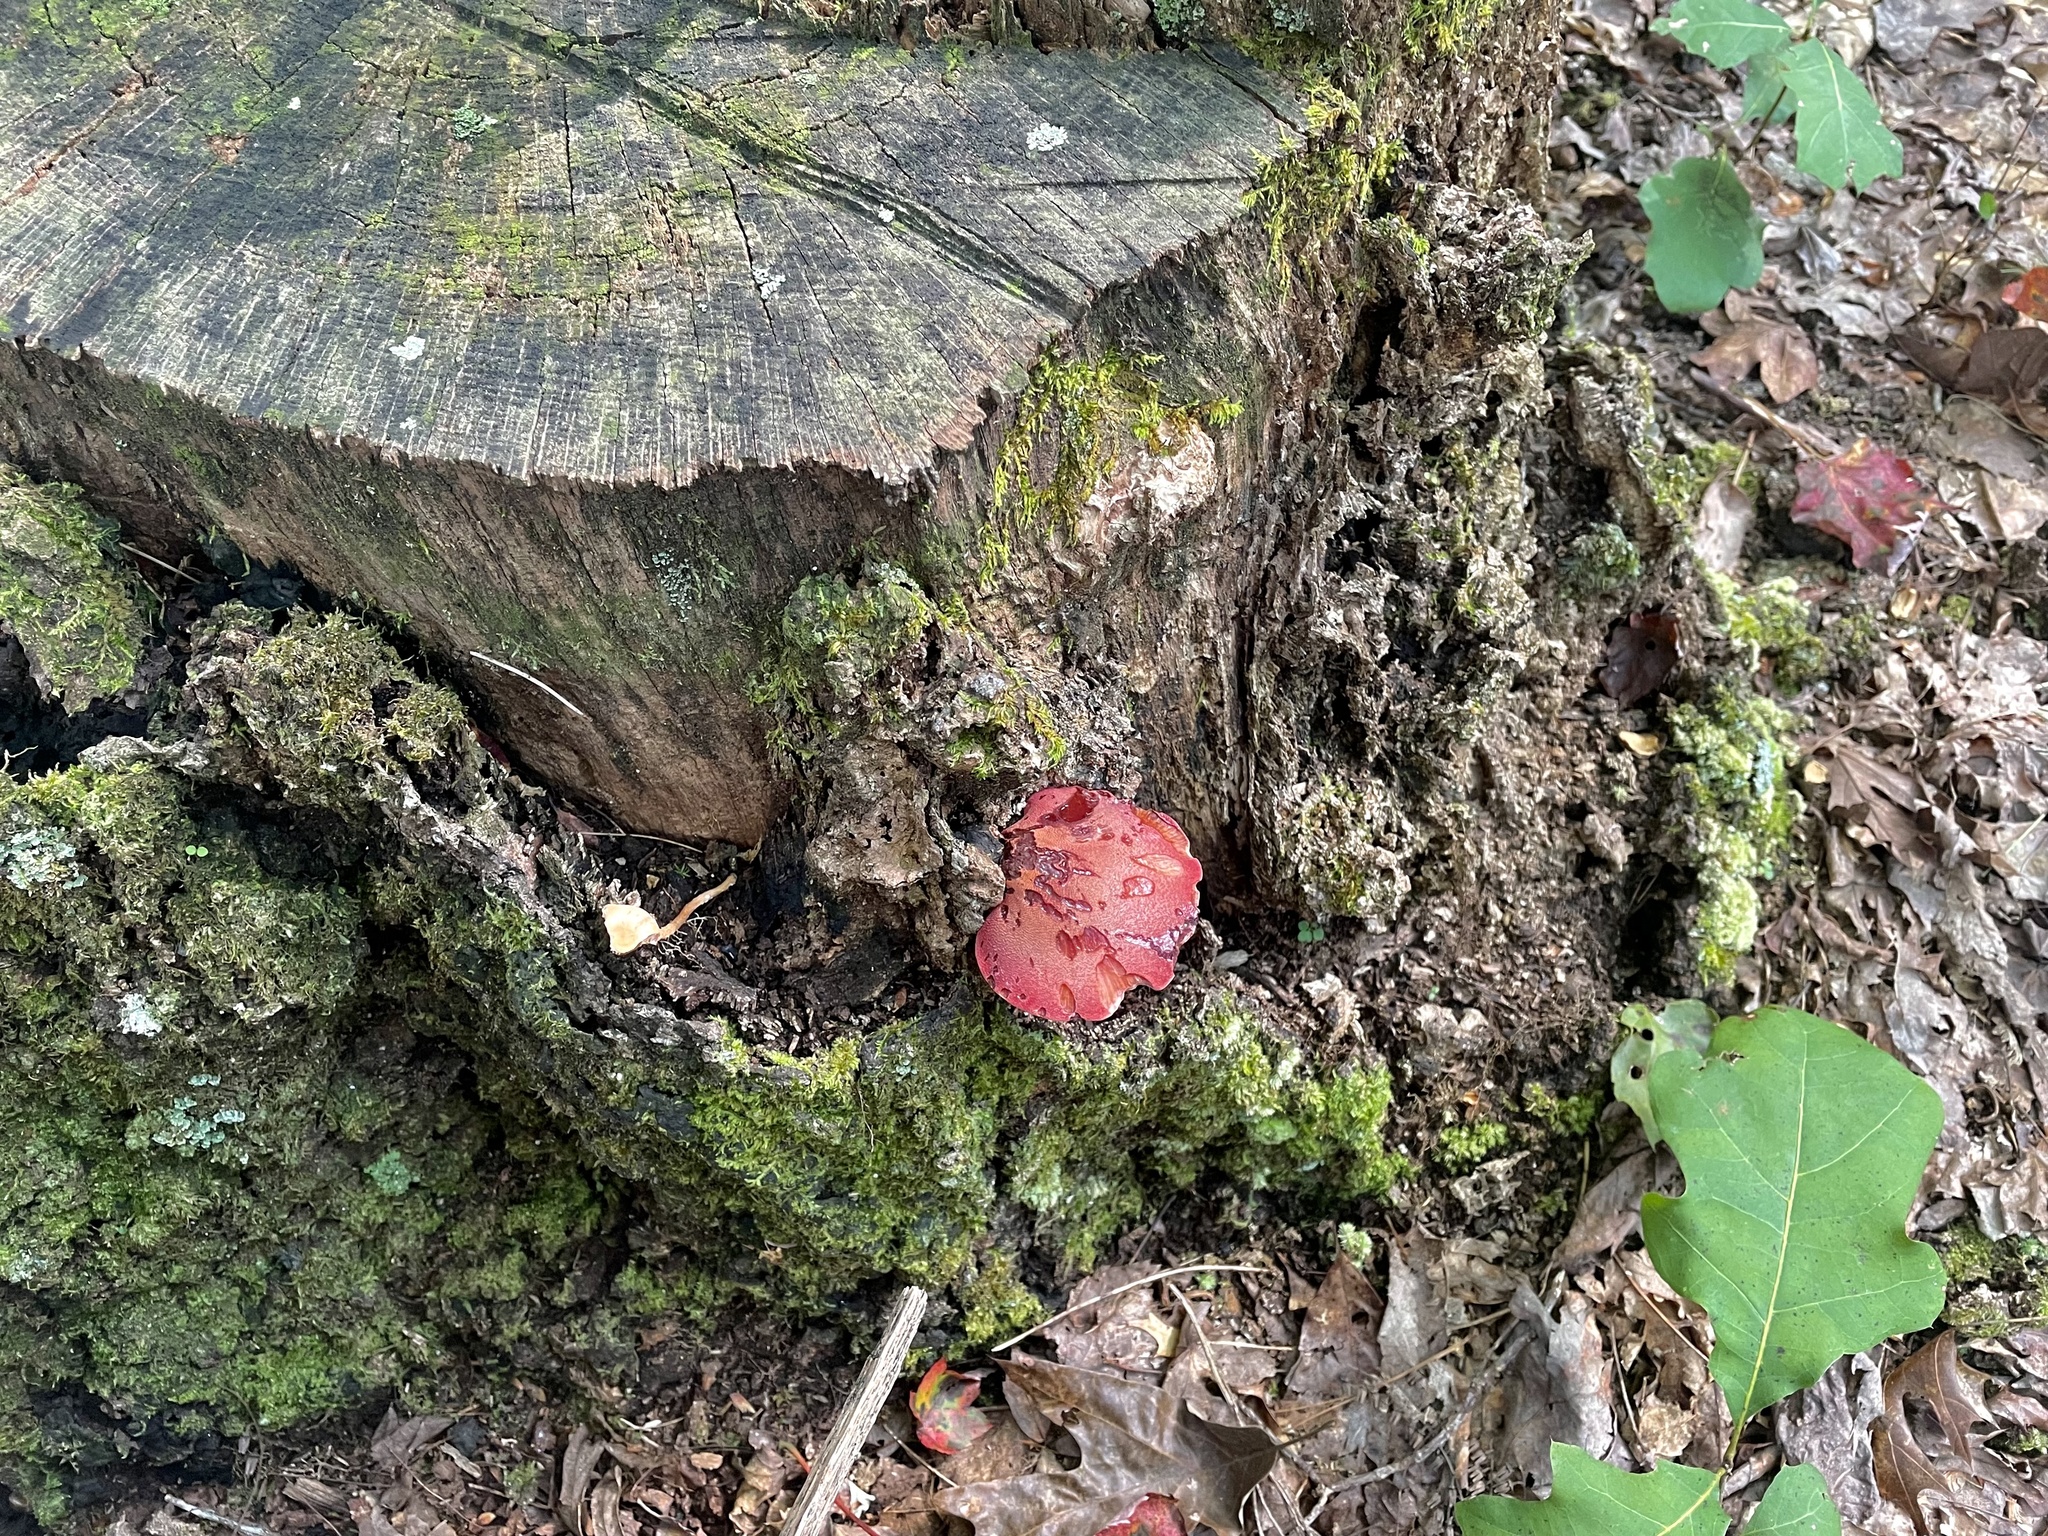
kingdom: Fungi
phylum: Basidiomycota
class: Agaricomycetes
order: Agaricales
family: Fistulinaceae
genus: Fistulina
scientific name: Fistulina hepatica
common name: Beef-steak fungus
